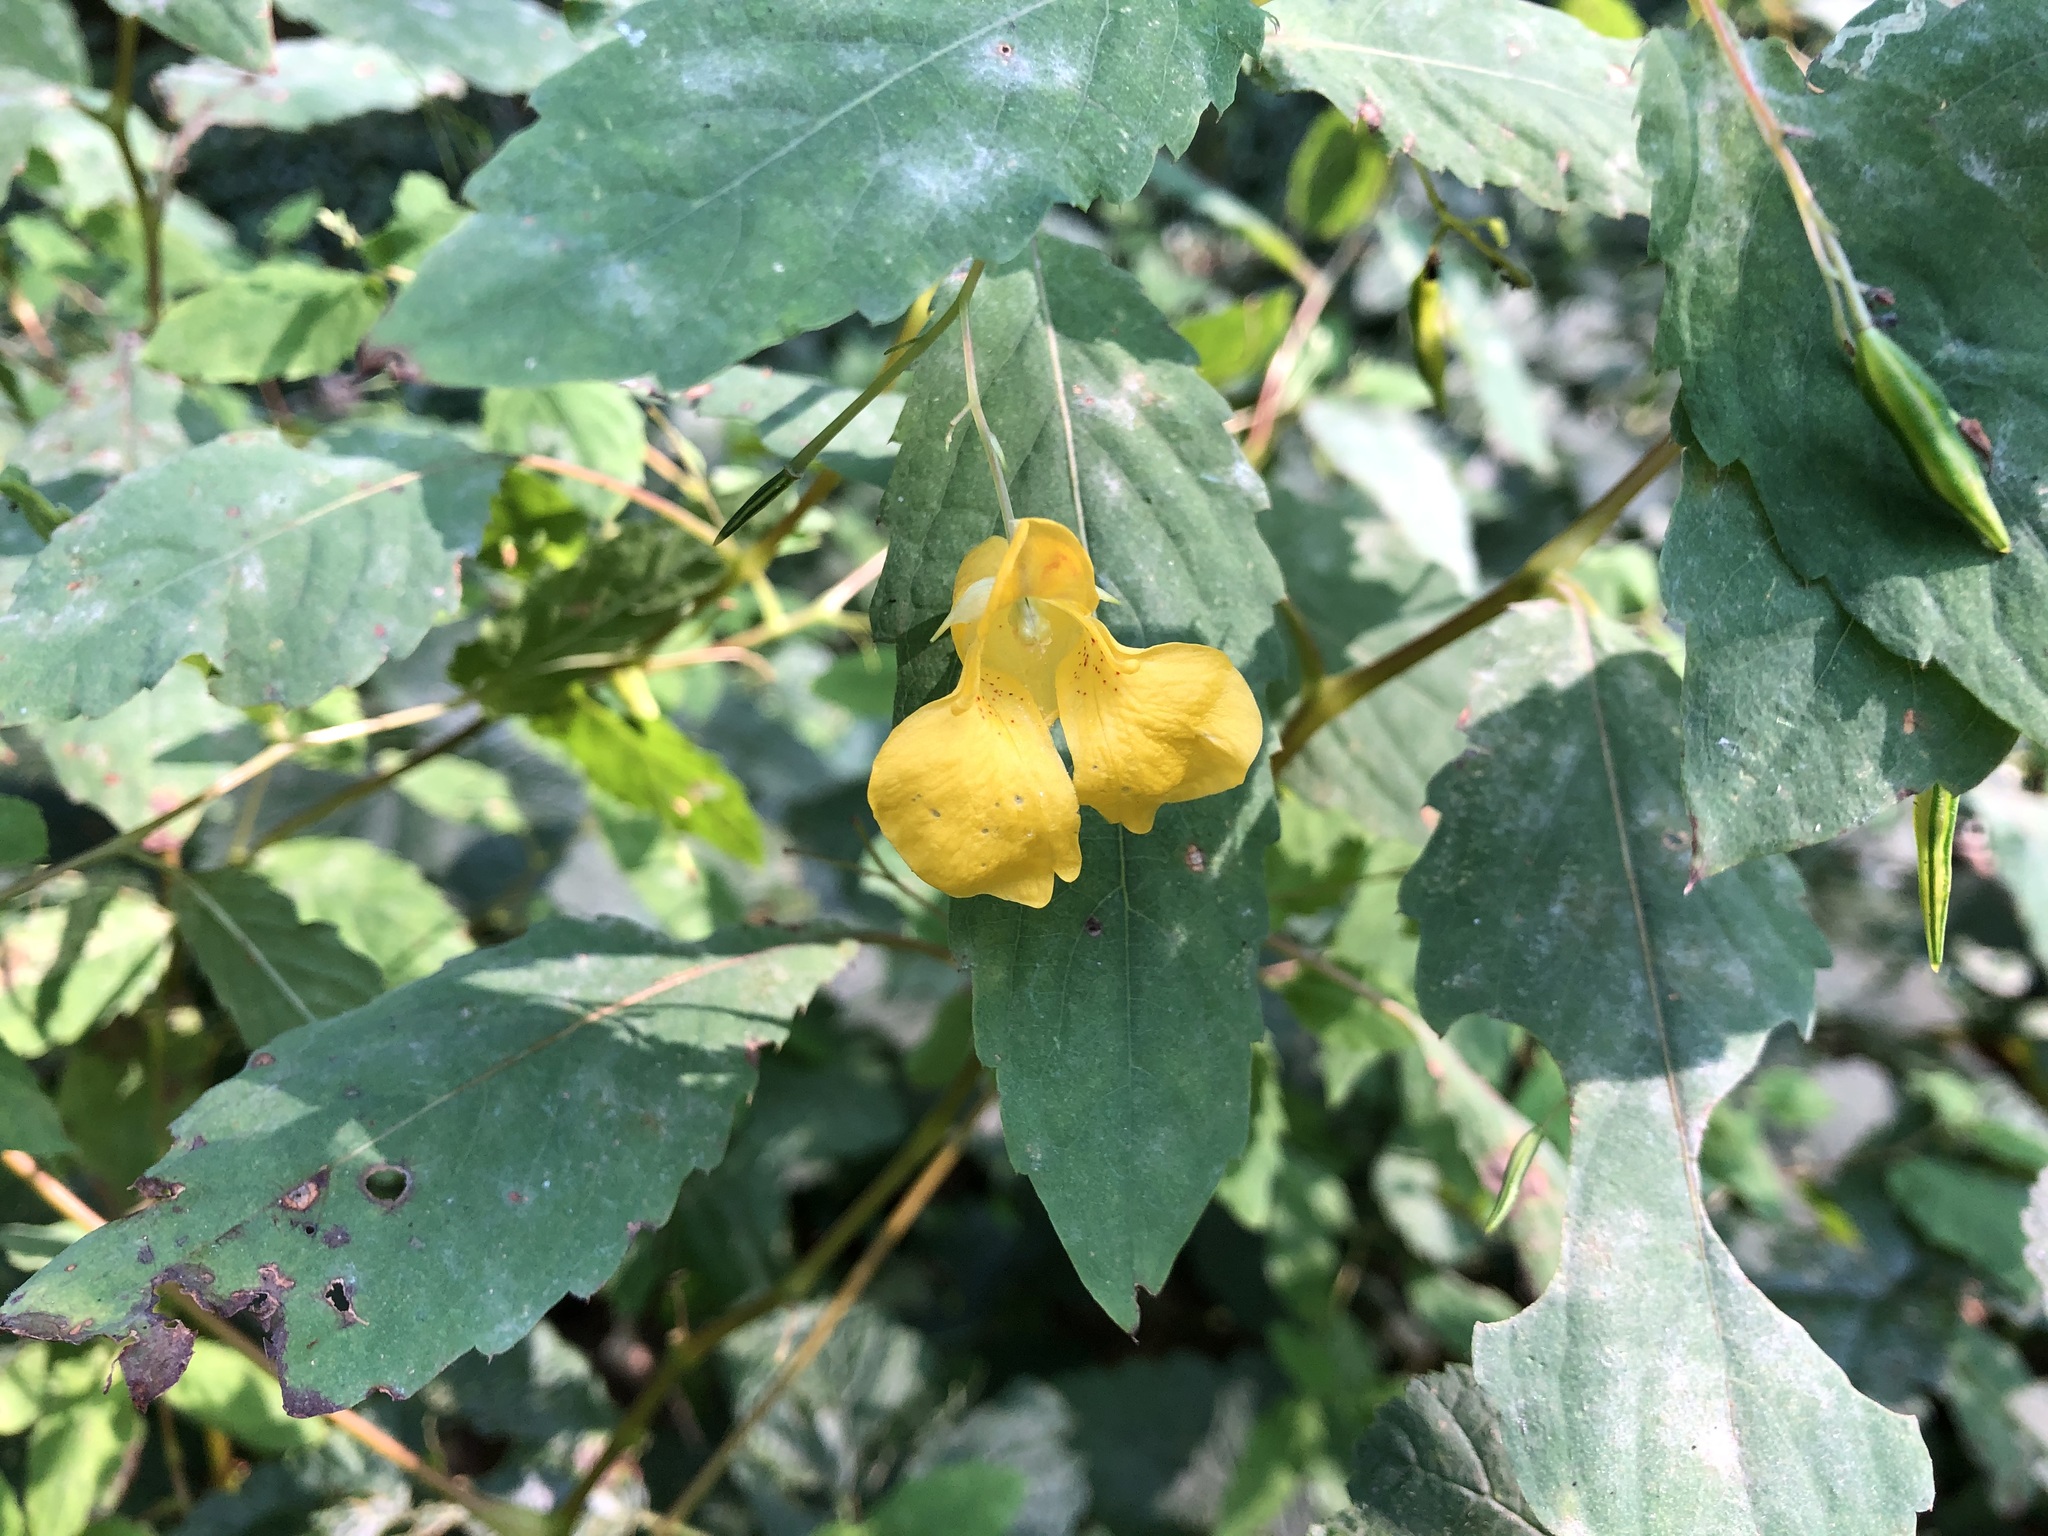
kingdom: Plantae
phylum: Tracheophyta
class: Magnoliopsida
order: Ericales
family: Balsaminaceae
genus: Impatiens
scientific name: Impatiens noli-tangere
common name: Touch-me-not balsam
